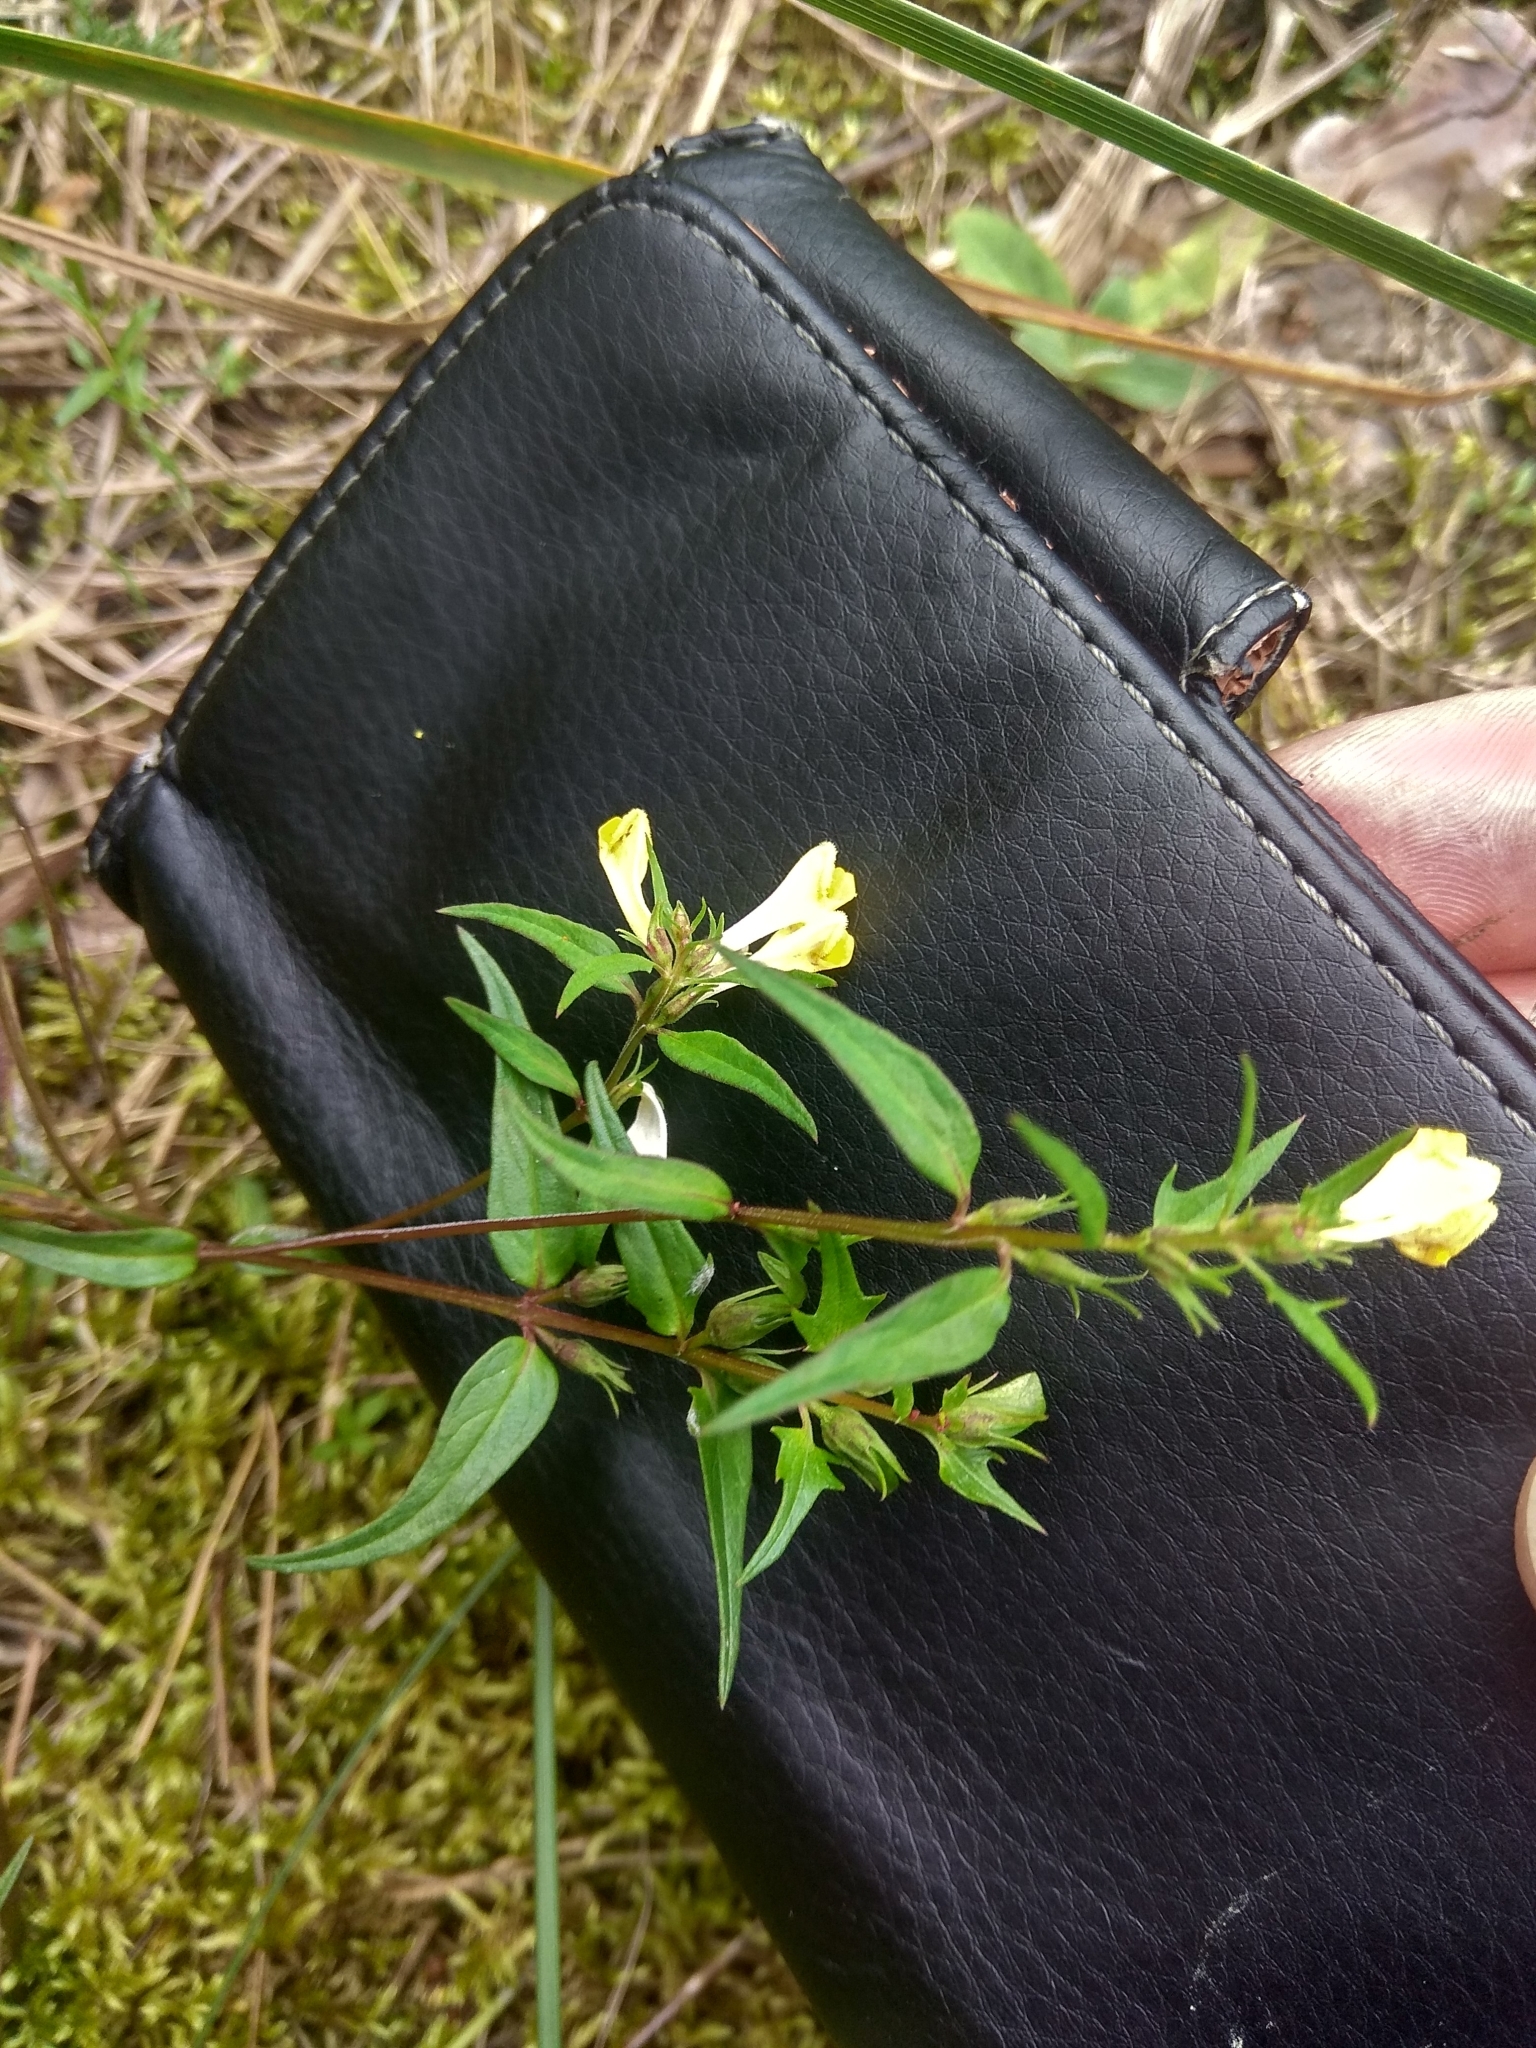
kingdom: Plantae
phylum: Tracheophyta
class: Magnoliopsida
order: Lamiales
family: Orobanchaceae
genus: Melampyrum
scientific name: Melampyrum pratense
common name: Common cow-wheat
